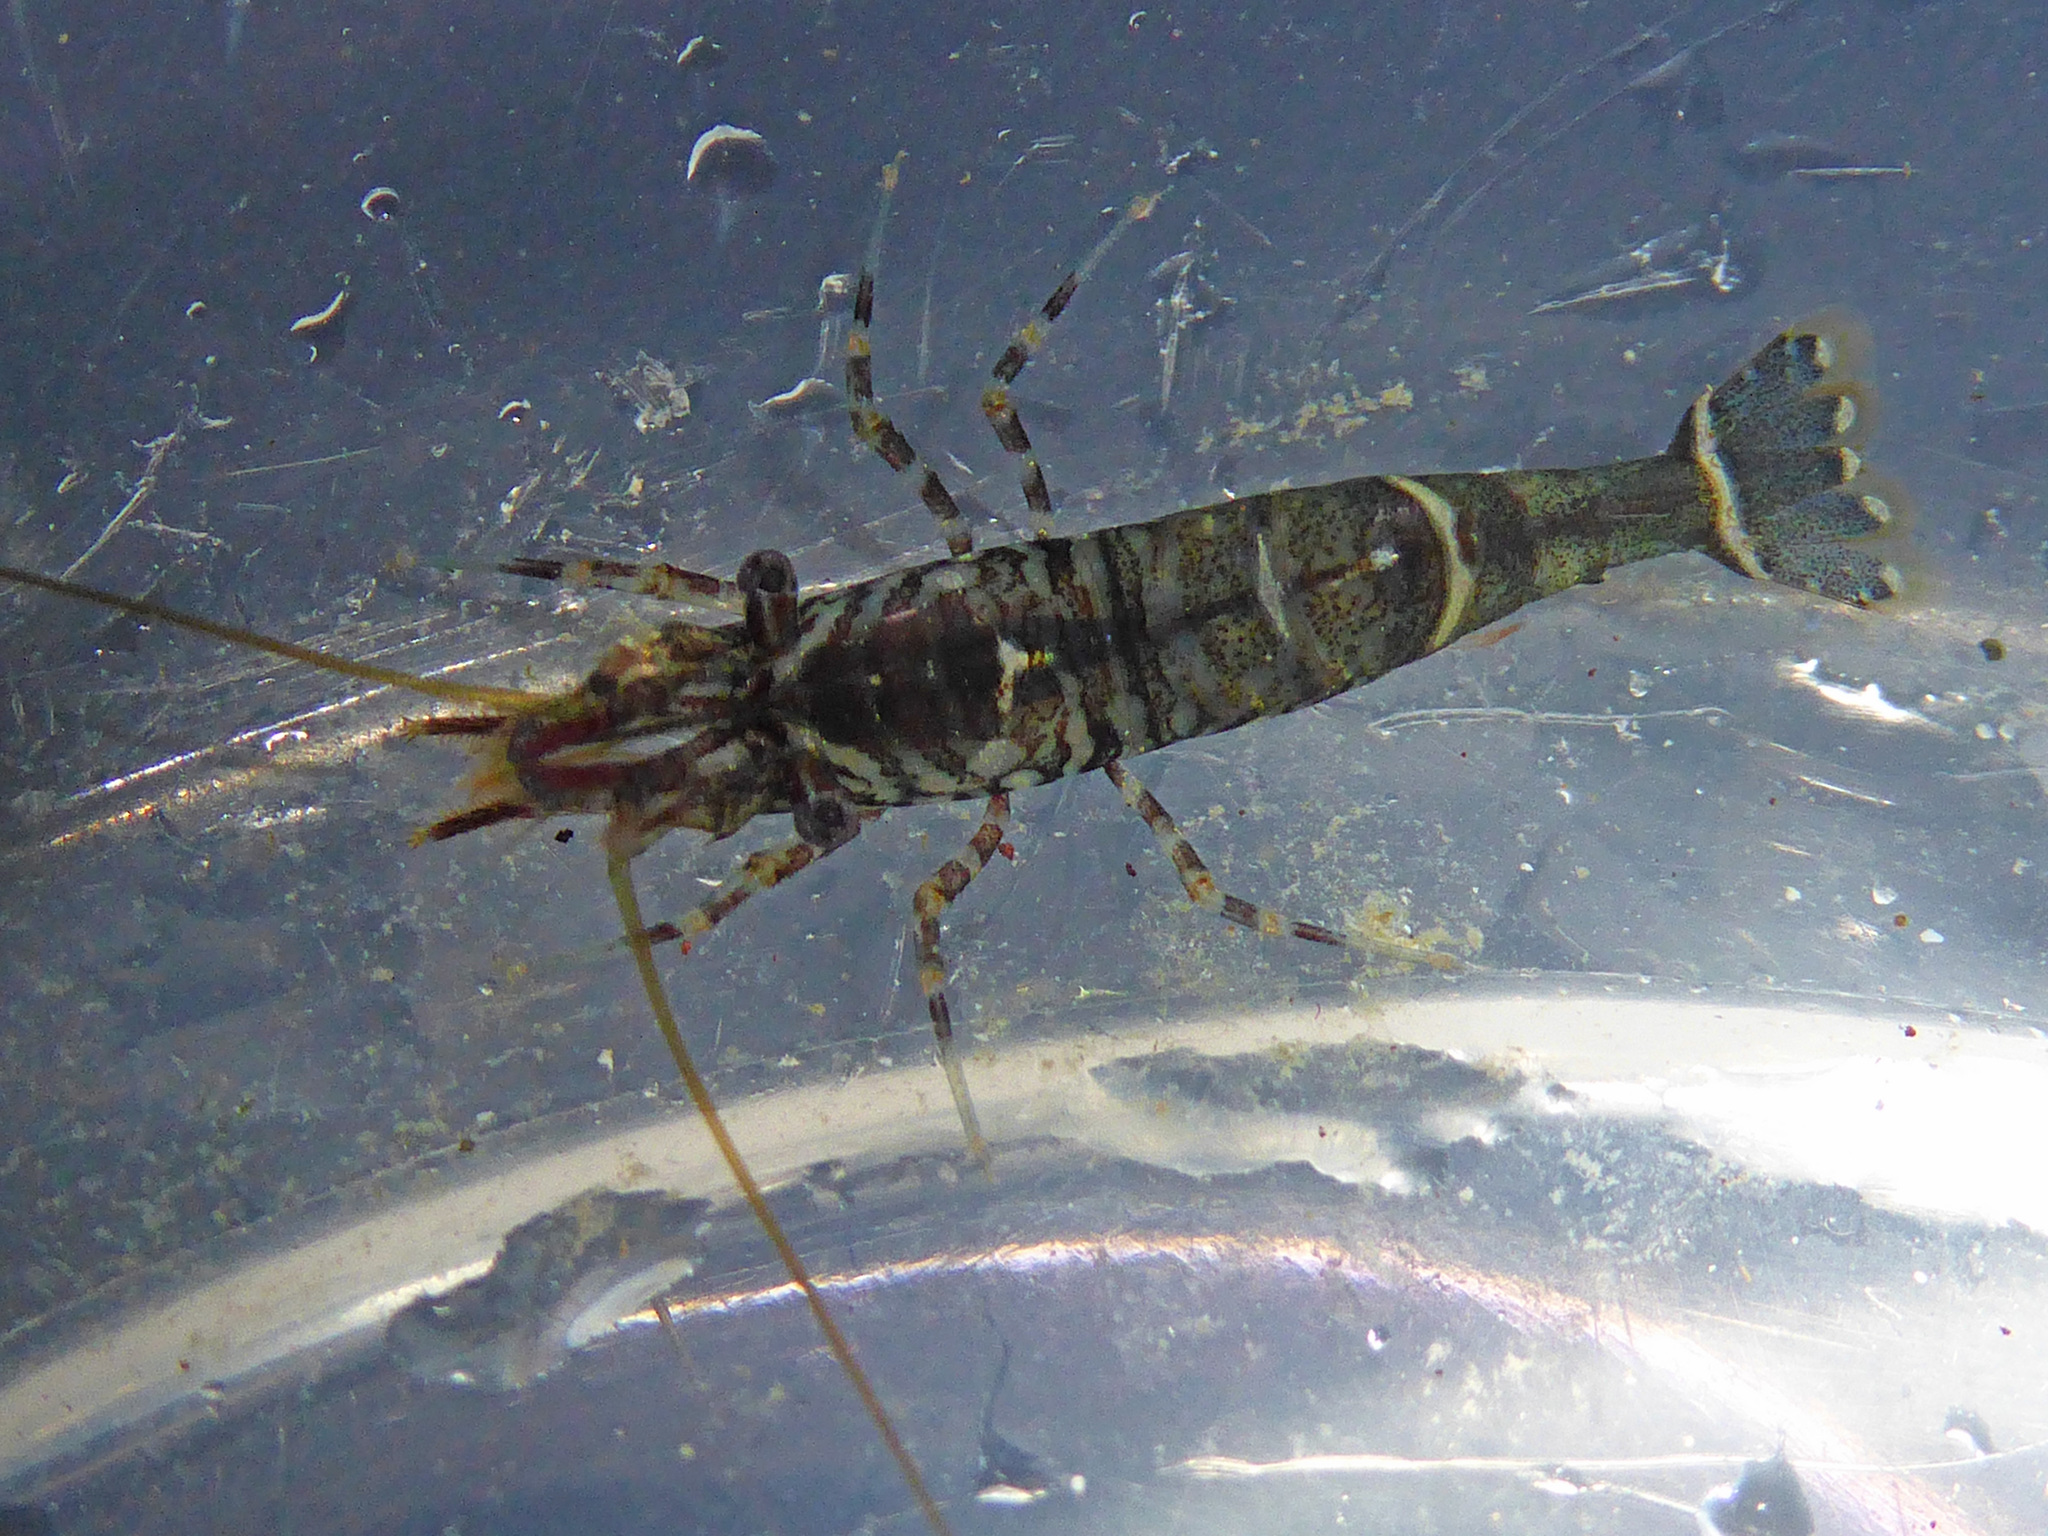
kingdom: Animalia
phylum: Arthropoda
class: Malacostraca
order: Decapoda
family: Thoridae
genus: Heptacarpus
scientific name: Heptacarpus sitchensis
